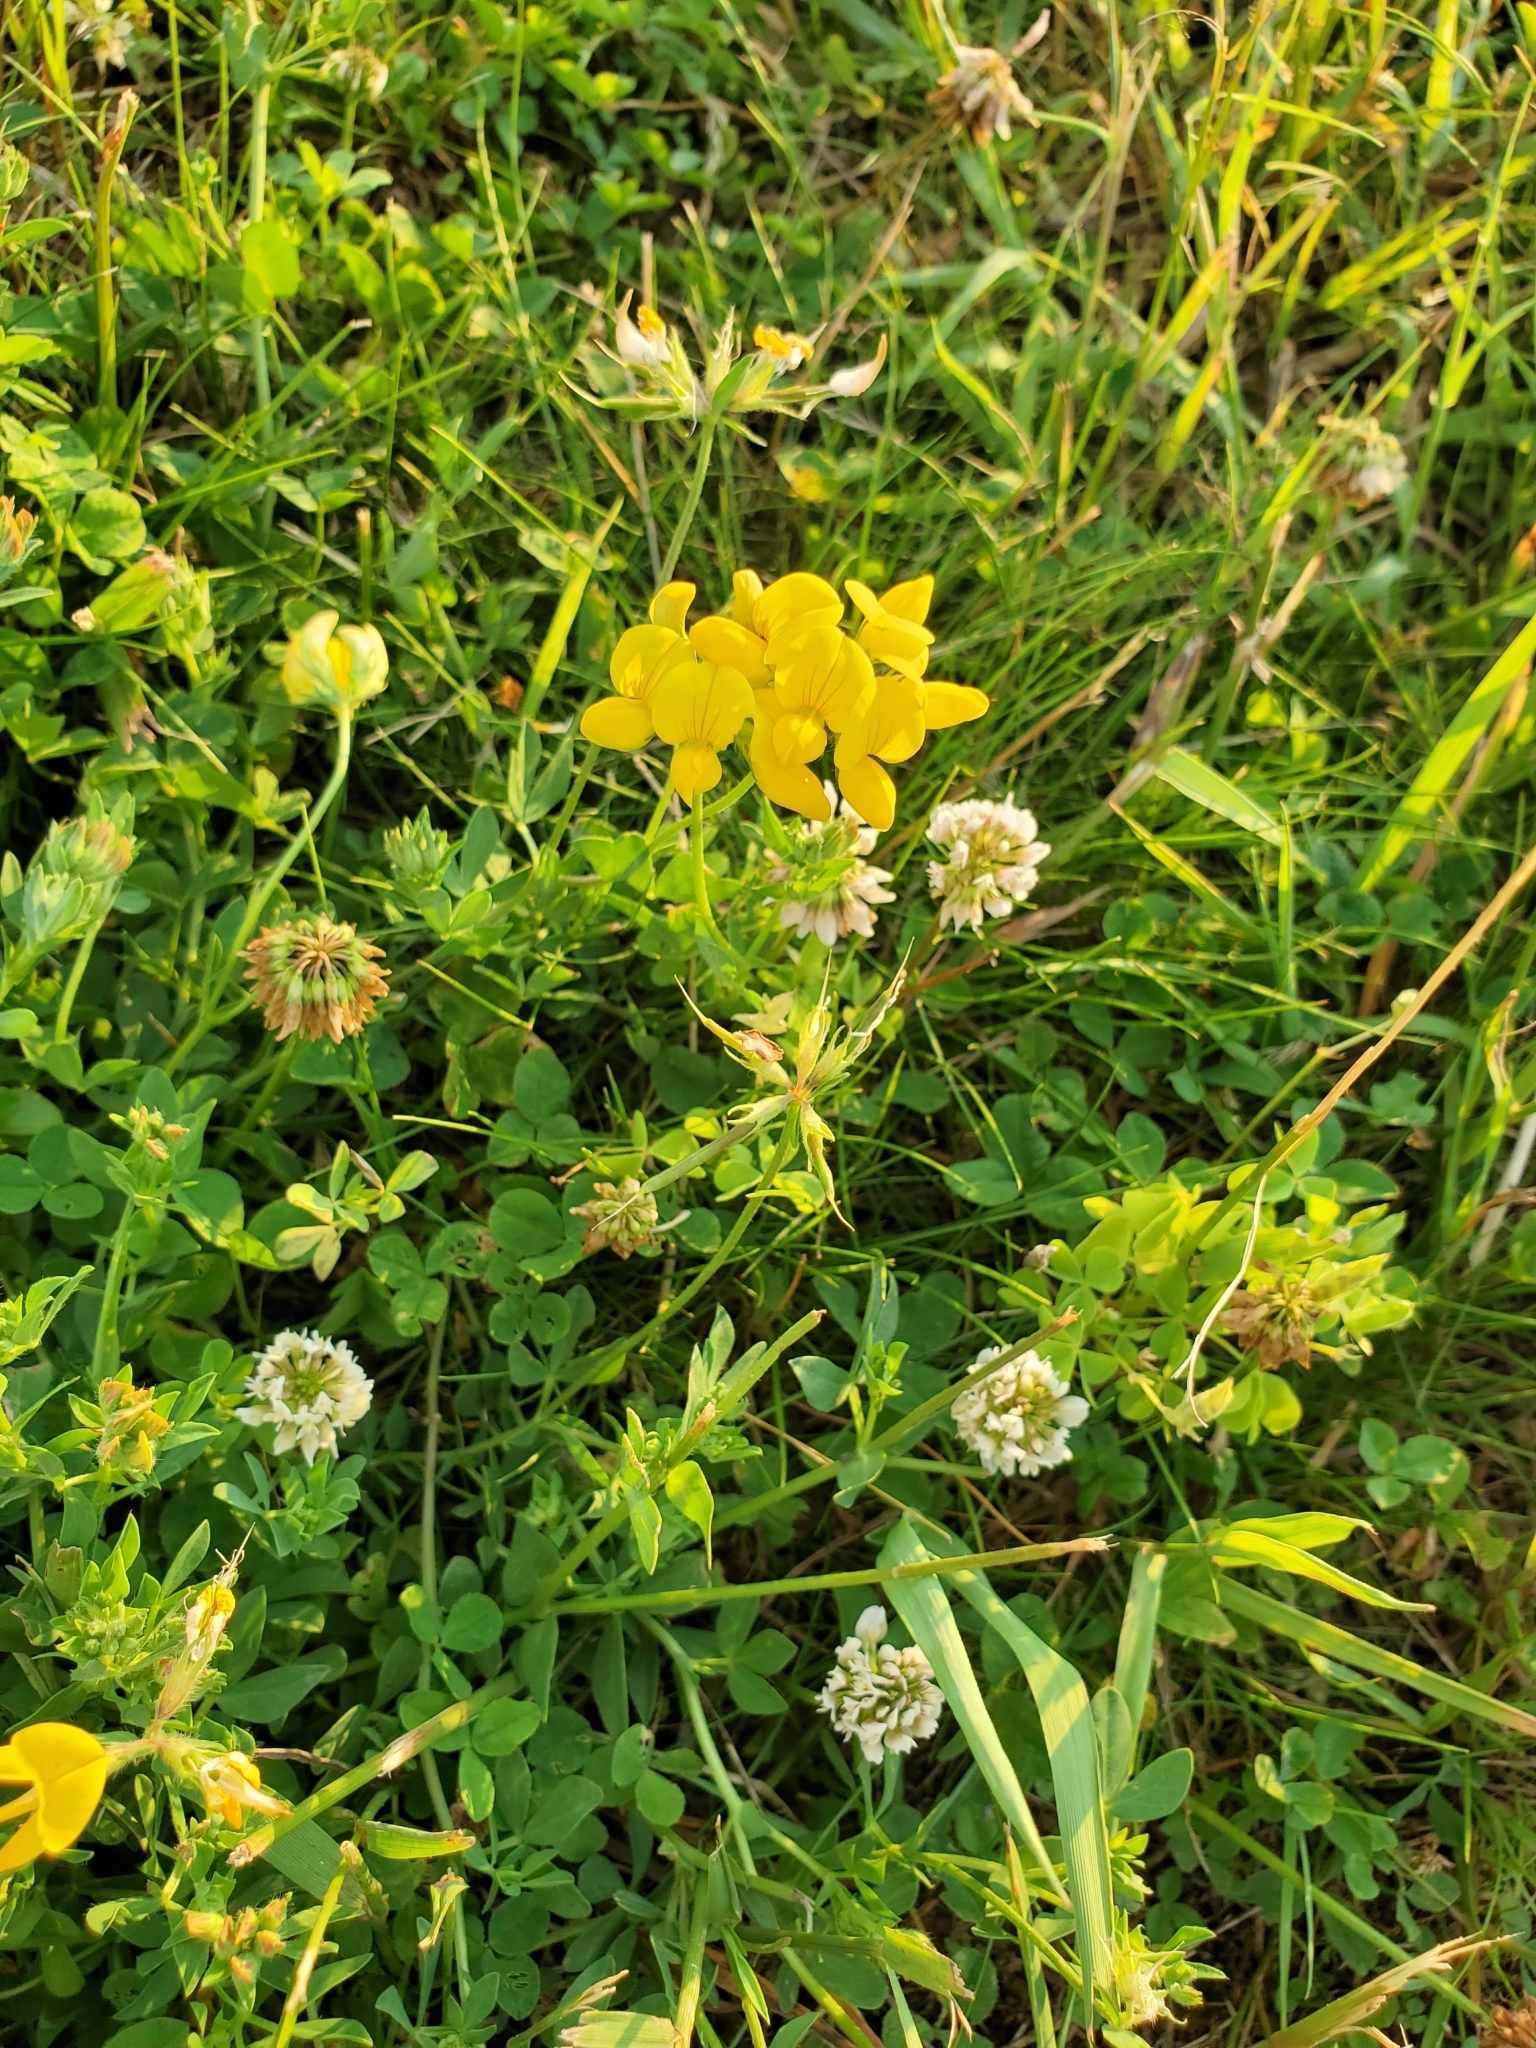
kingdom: Plantae
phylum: Tracheophyta
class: Magnoliopsida
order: Fabales
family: Fabaceae
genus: Lotus
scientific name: Lotus corniculatus
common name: Common bird's-foot-trefoil
